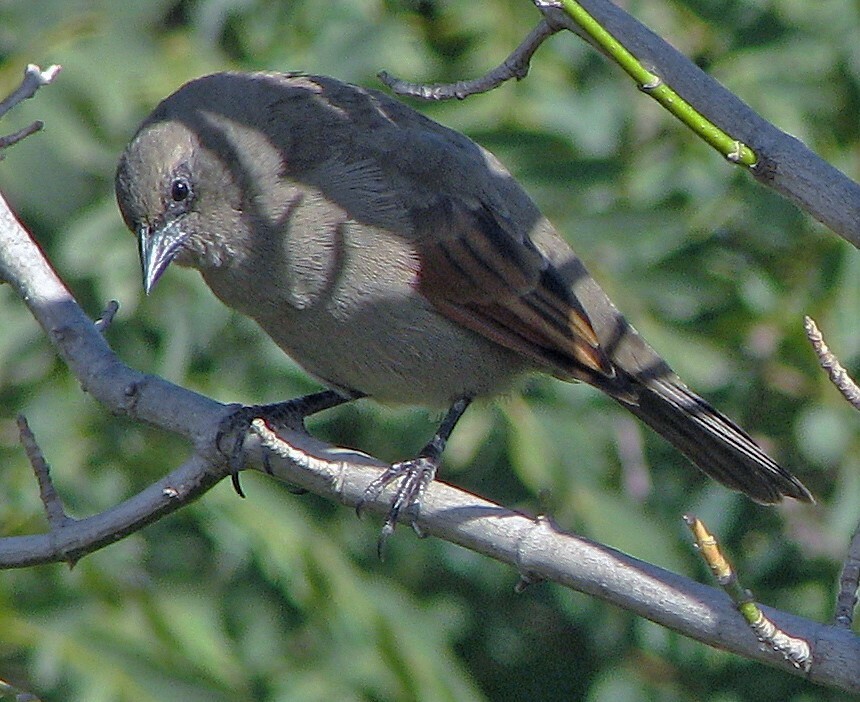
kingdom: Animalia
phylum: Chordata
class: Aves
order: Passeriformes
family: Icteridae
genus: Agelaioides
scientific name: Agelaioides badius
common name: Baywing
